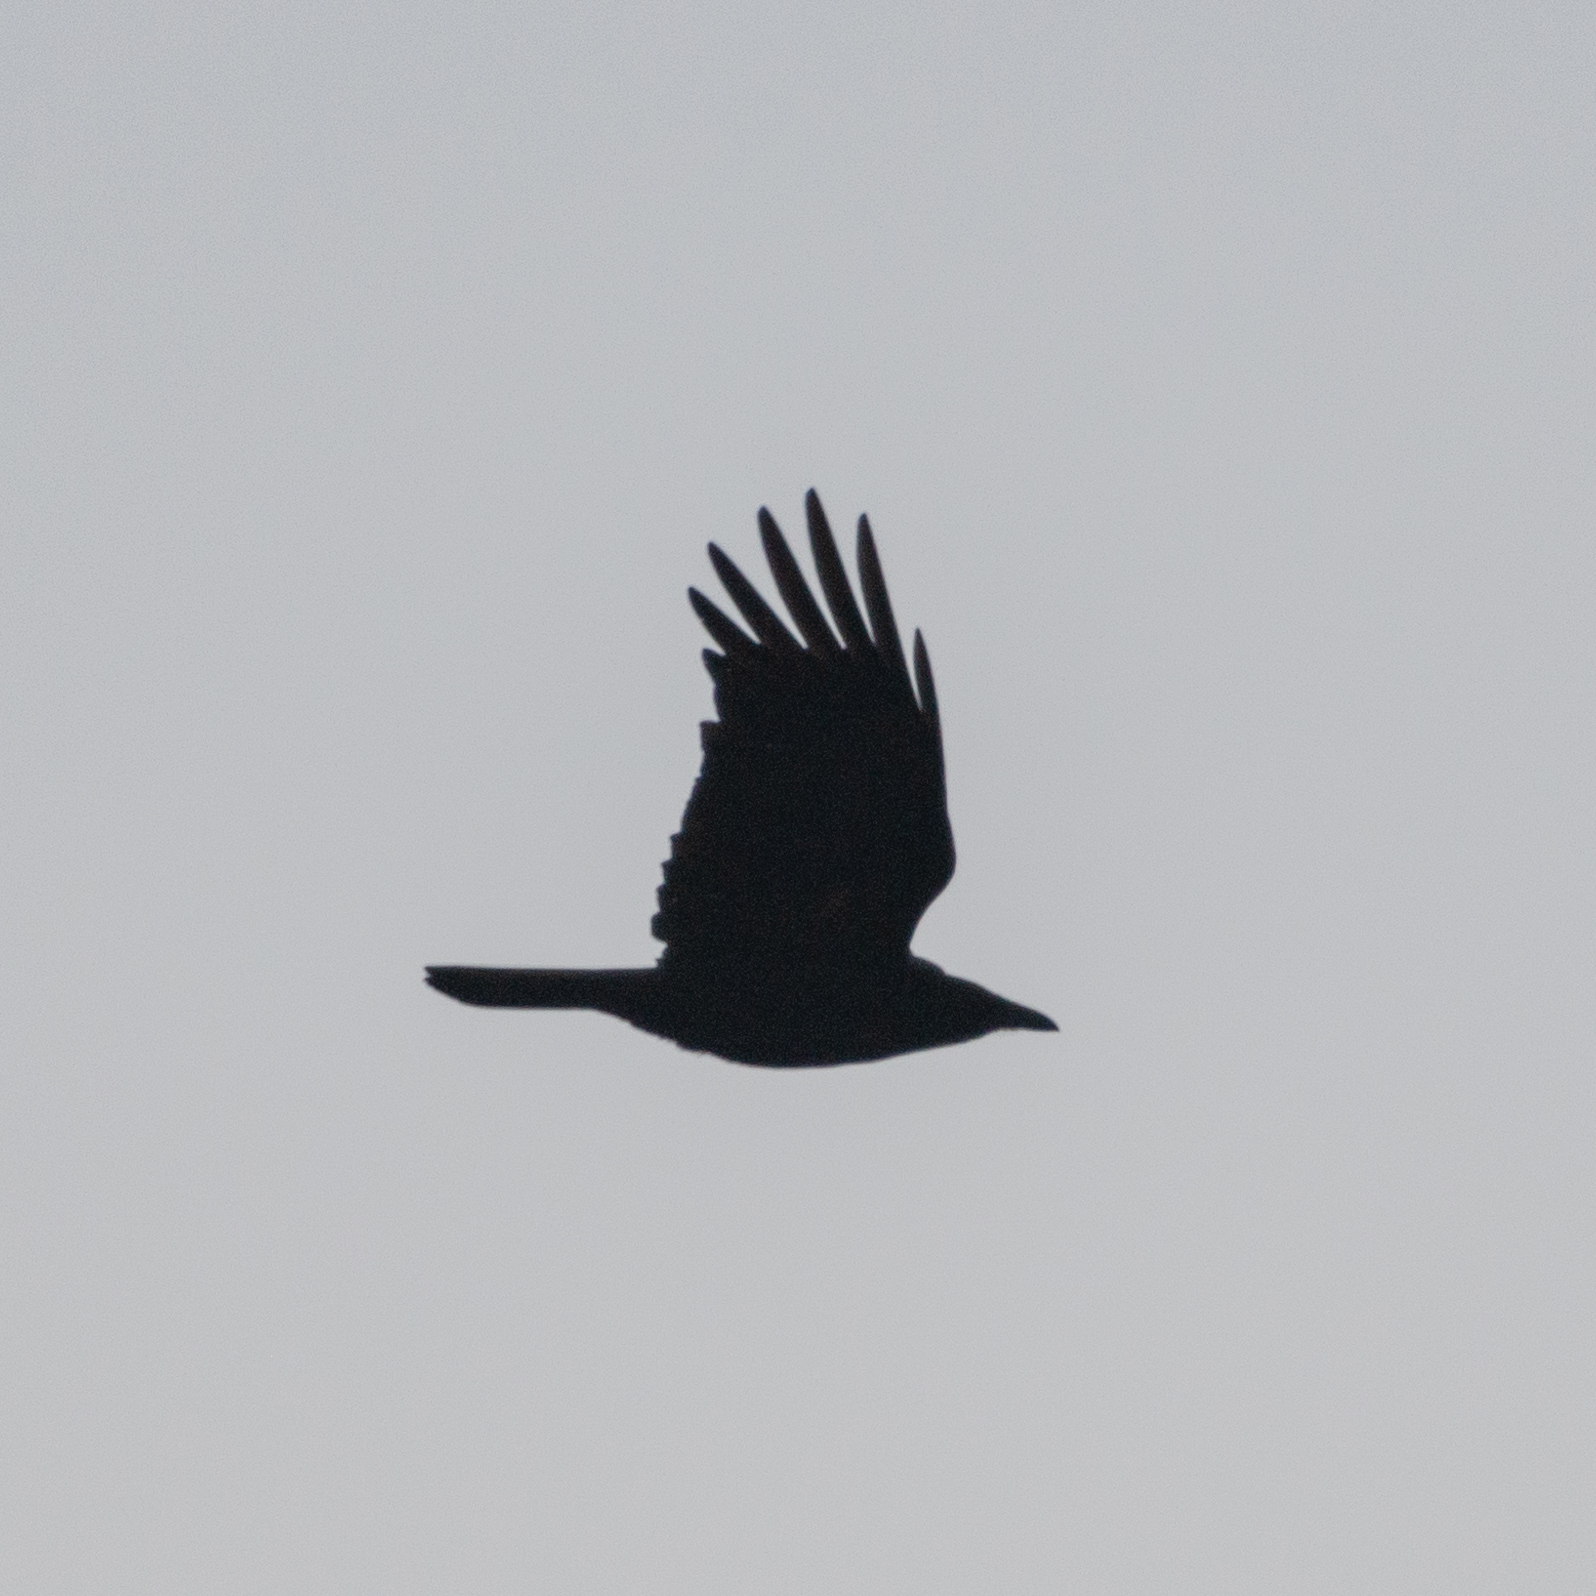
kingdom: Animalia
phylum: Chordata
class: Aves
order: Passeriformes
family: Corvidae
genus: Corvus
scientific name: Corvus corone
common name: Carrion crow
